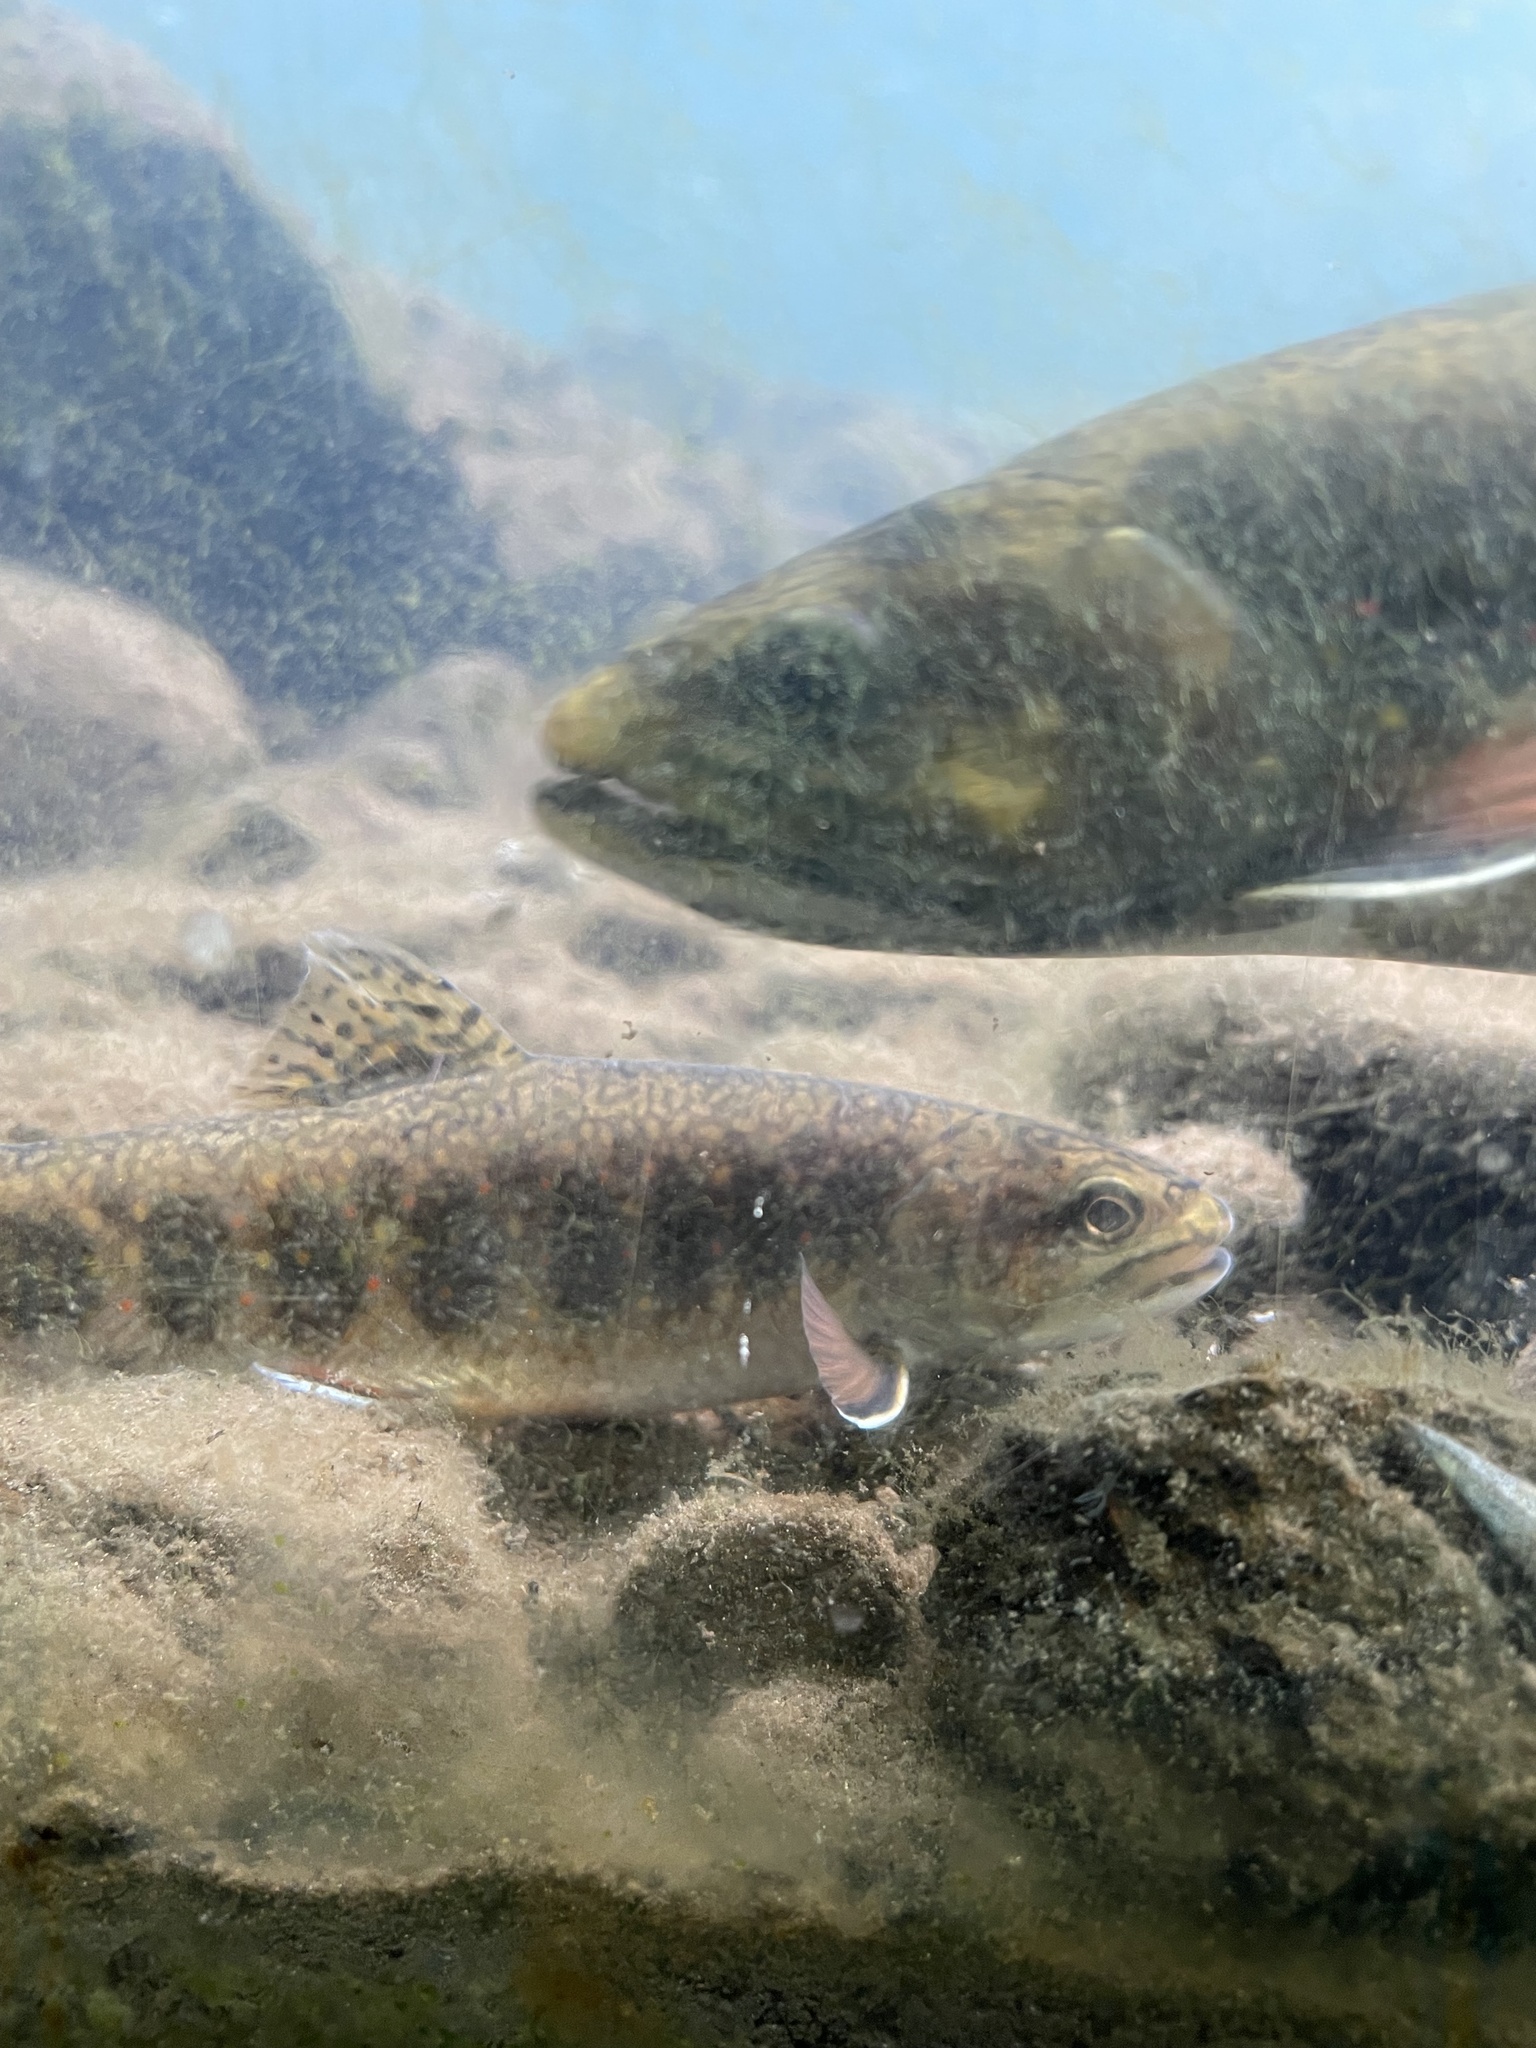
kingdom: Animalia
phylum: Chordata
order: Salmoniformes
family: Salmonidae
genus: Salvelinus
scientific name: Salvelinus fontinalis
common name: Brook trout
